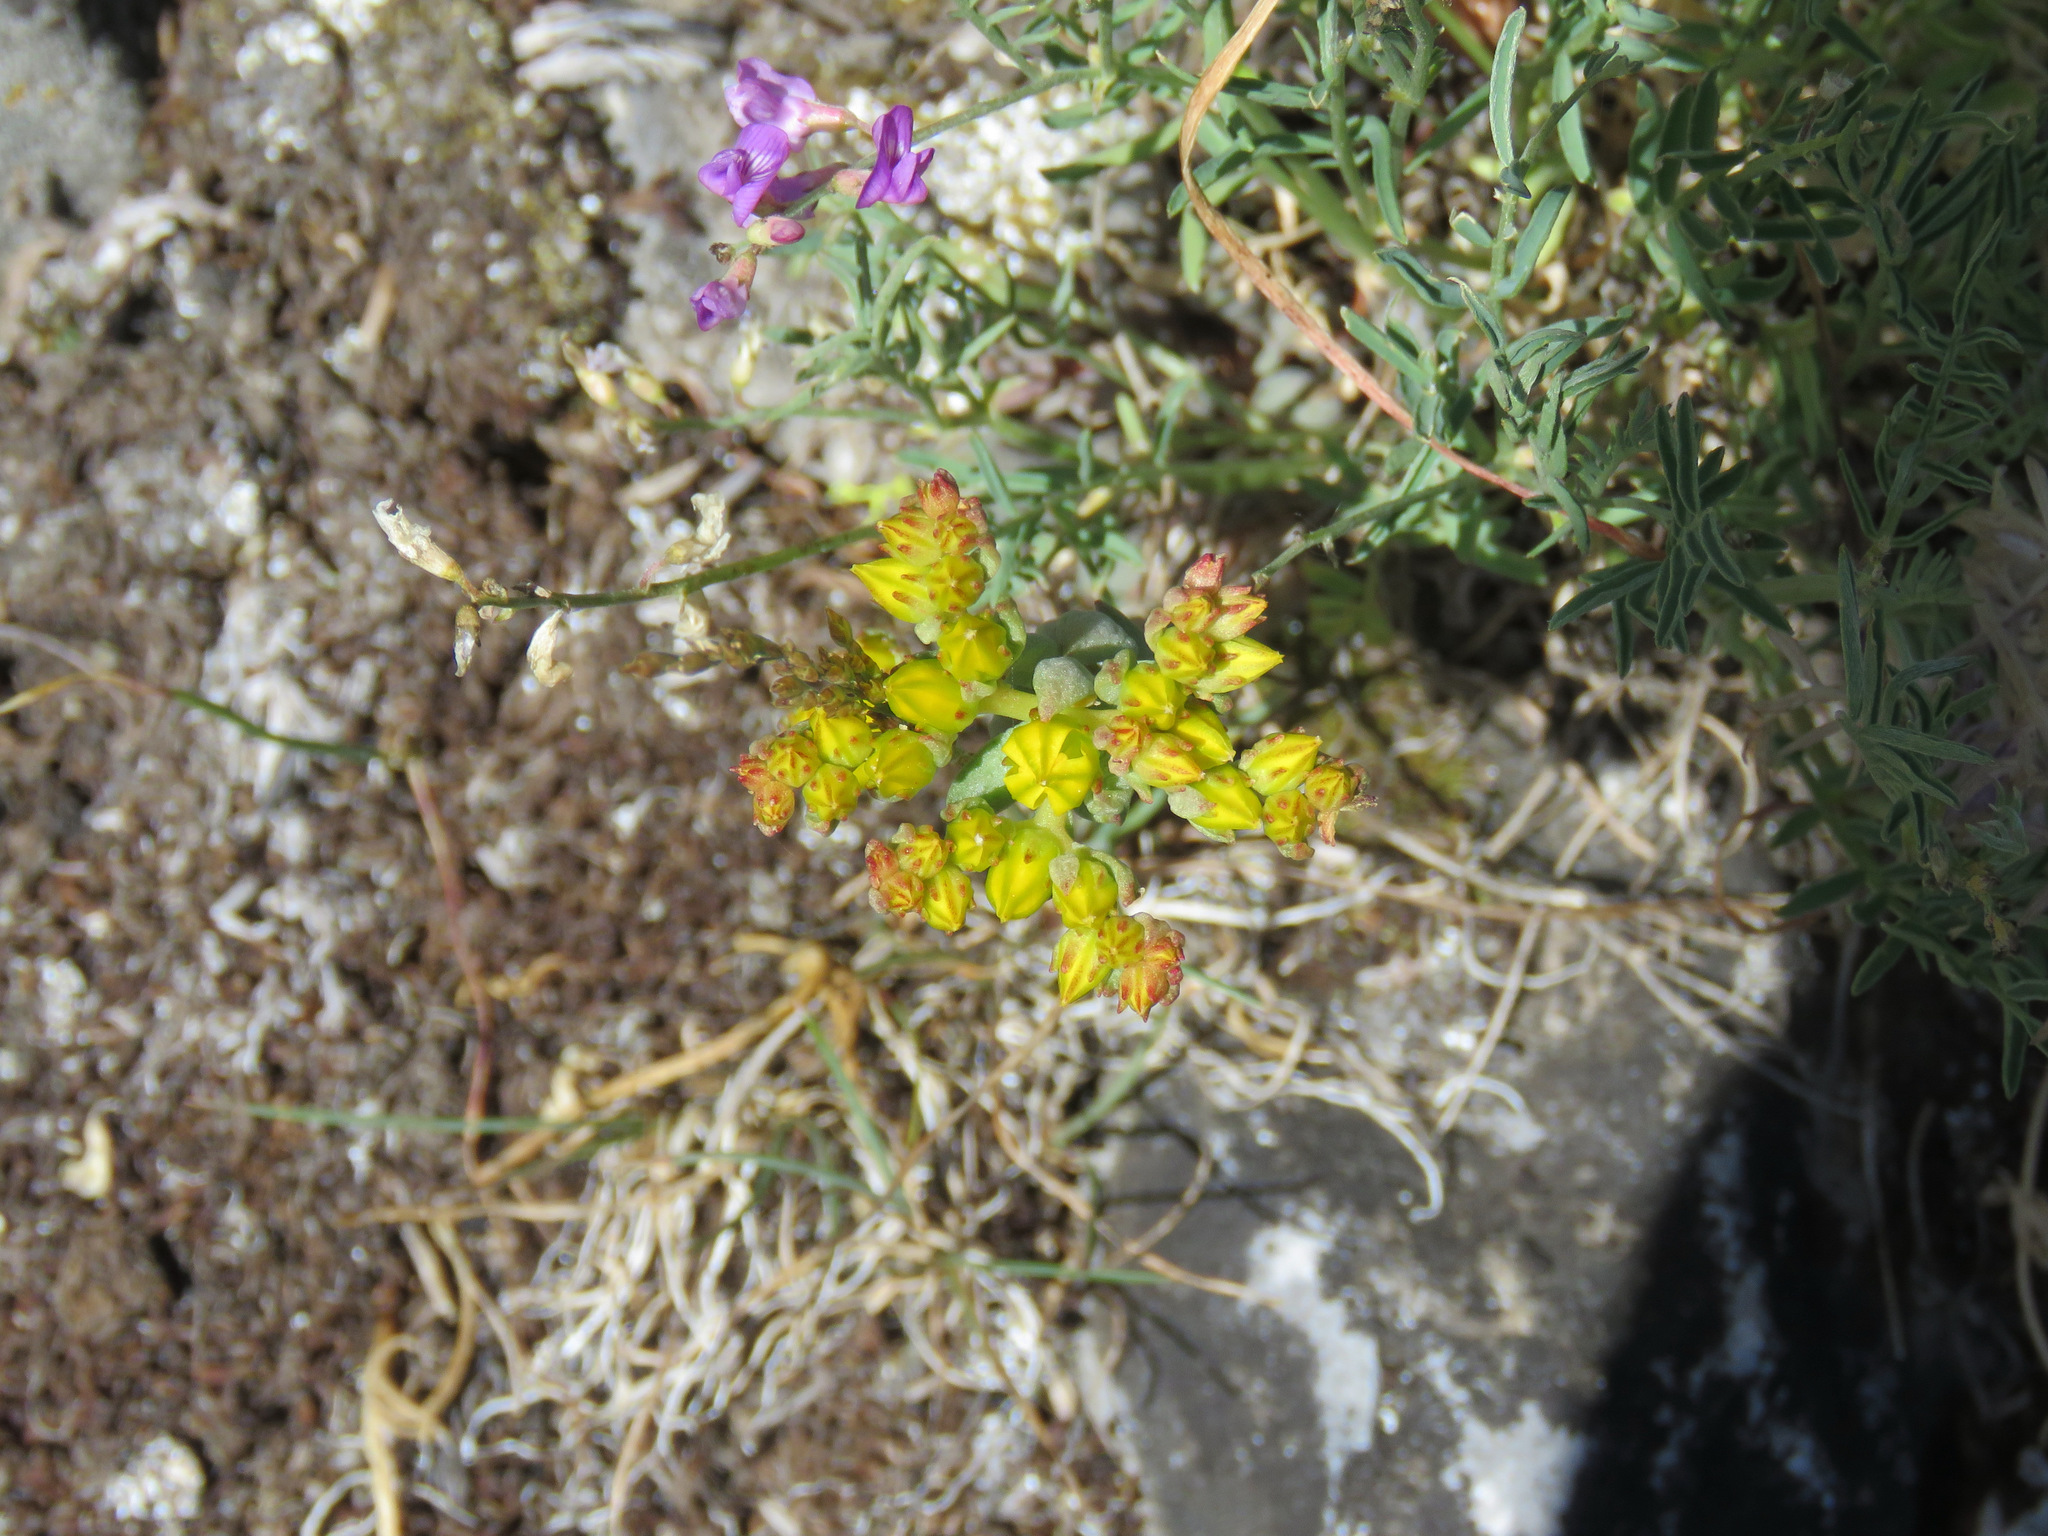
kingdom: Plantae
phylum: Tracheophyta
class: Magnoliopsida
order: Saxifragales
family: Crassulaceae
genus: Sedum
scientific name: Sedum lanceolatum
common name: Common stonecrop
